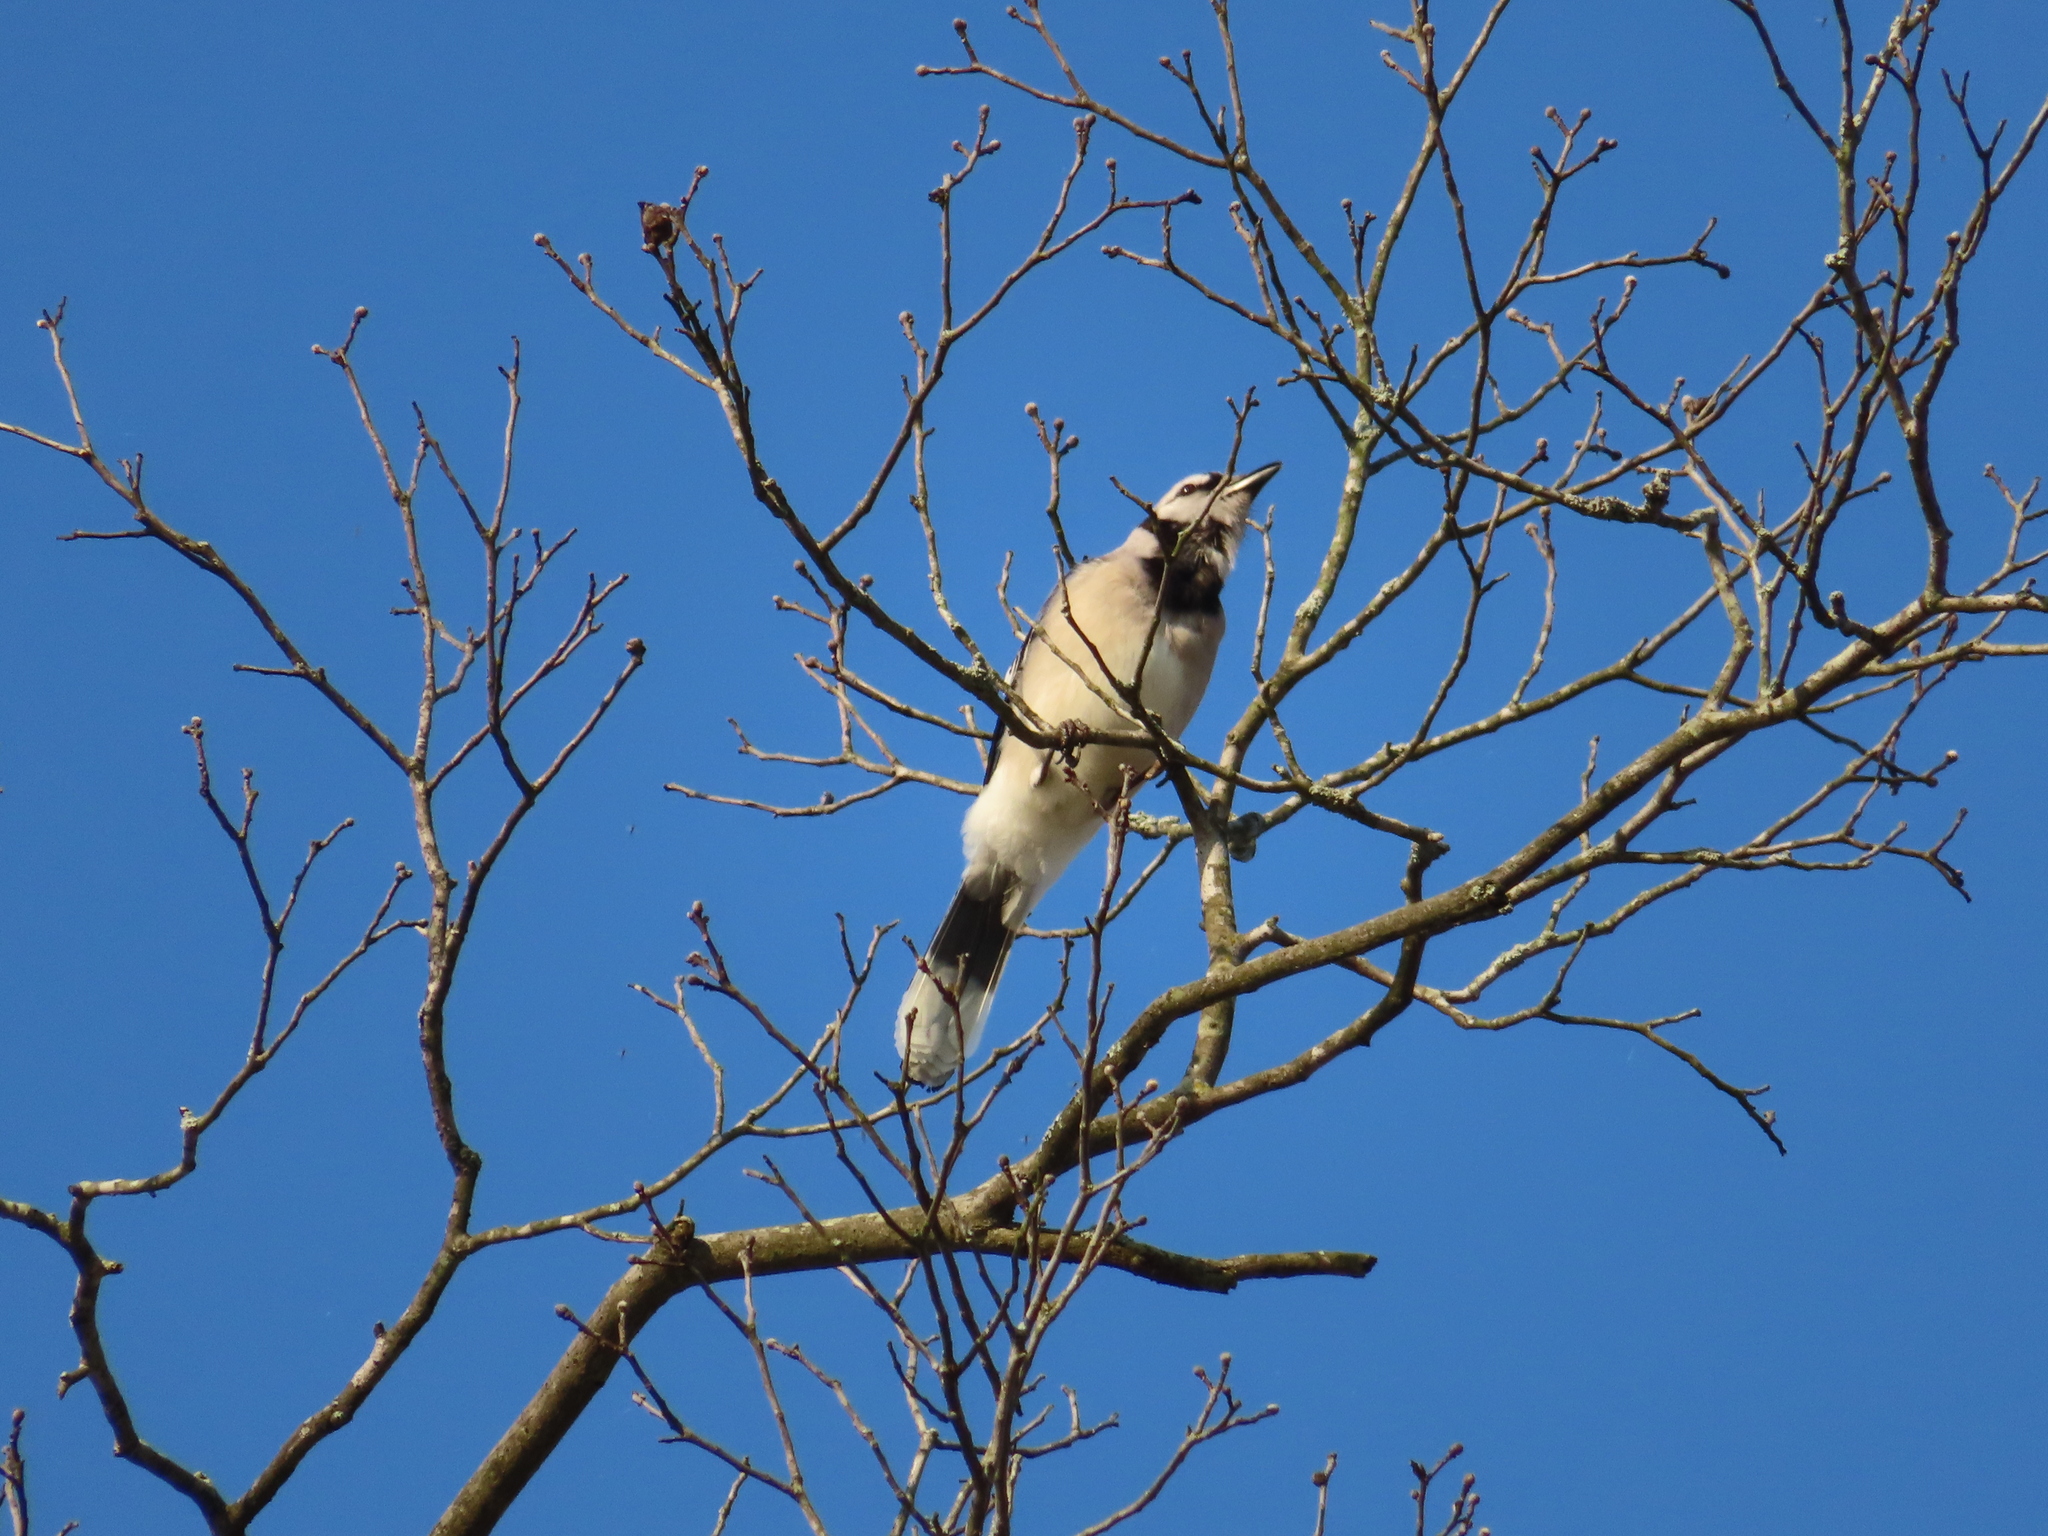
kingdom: Animalia
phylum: Chordata
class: Aves
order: Passeriformes
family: Corvidae
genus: Cyanocitta
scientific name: Cyanocitta cristata
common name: Blue jay
